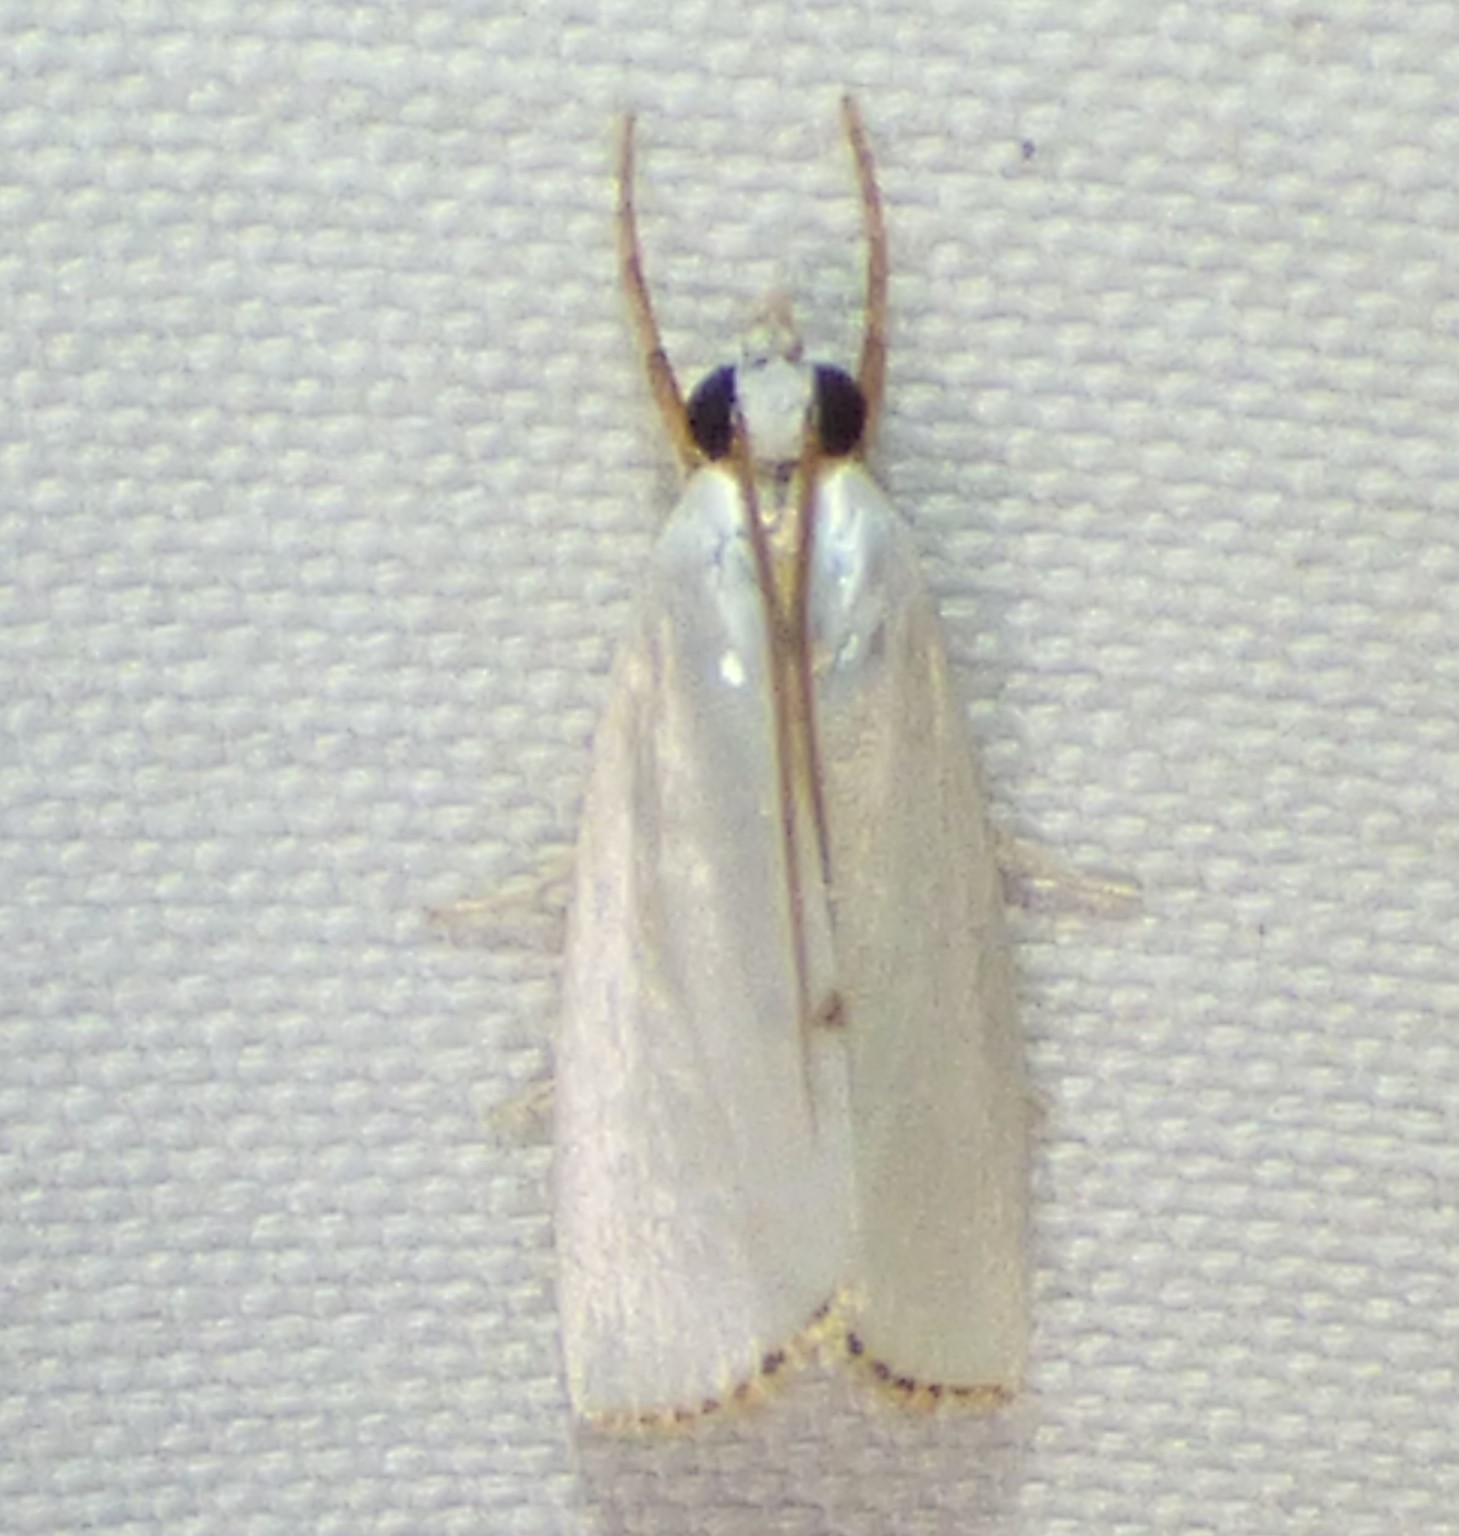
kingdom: Animalia
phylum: Arthropoda
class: Insecta
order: Lepidoptera
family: Crambidae
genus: Argyria
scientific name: Argyria nivalis
